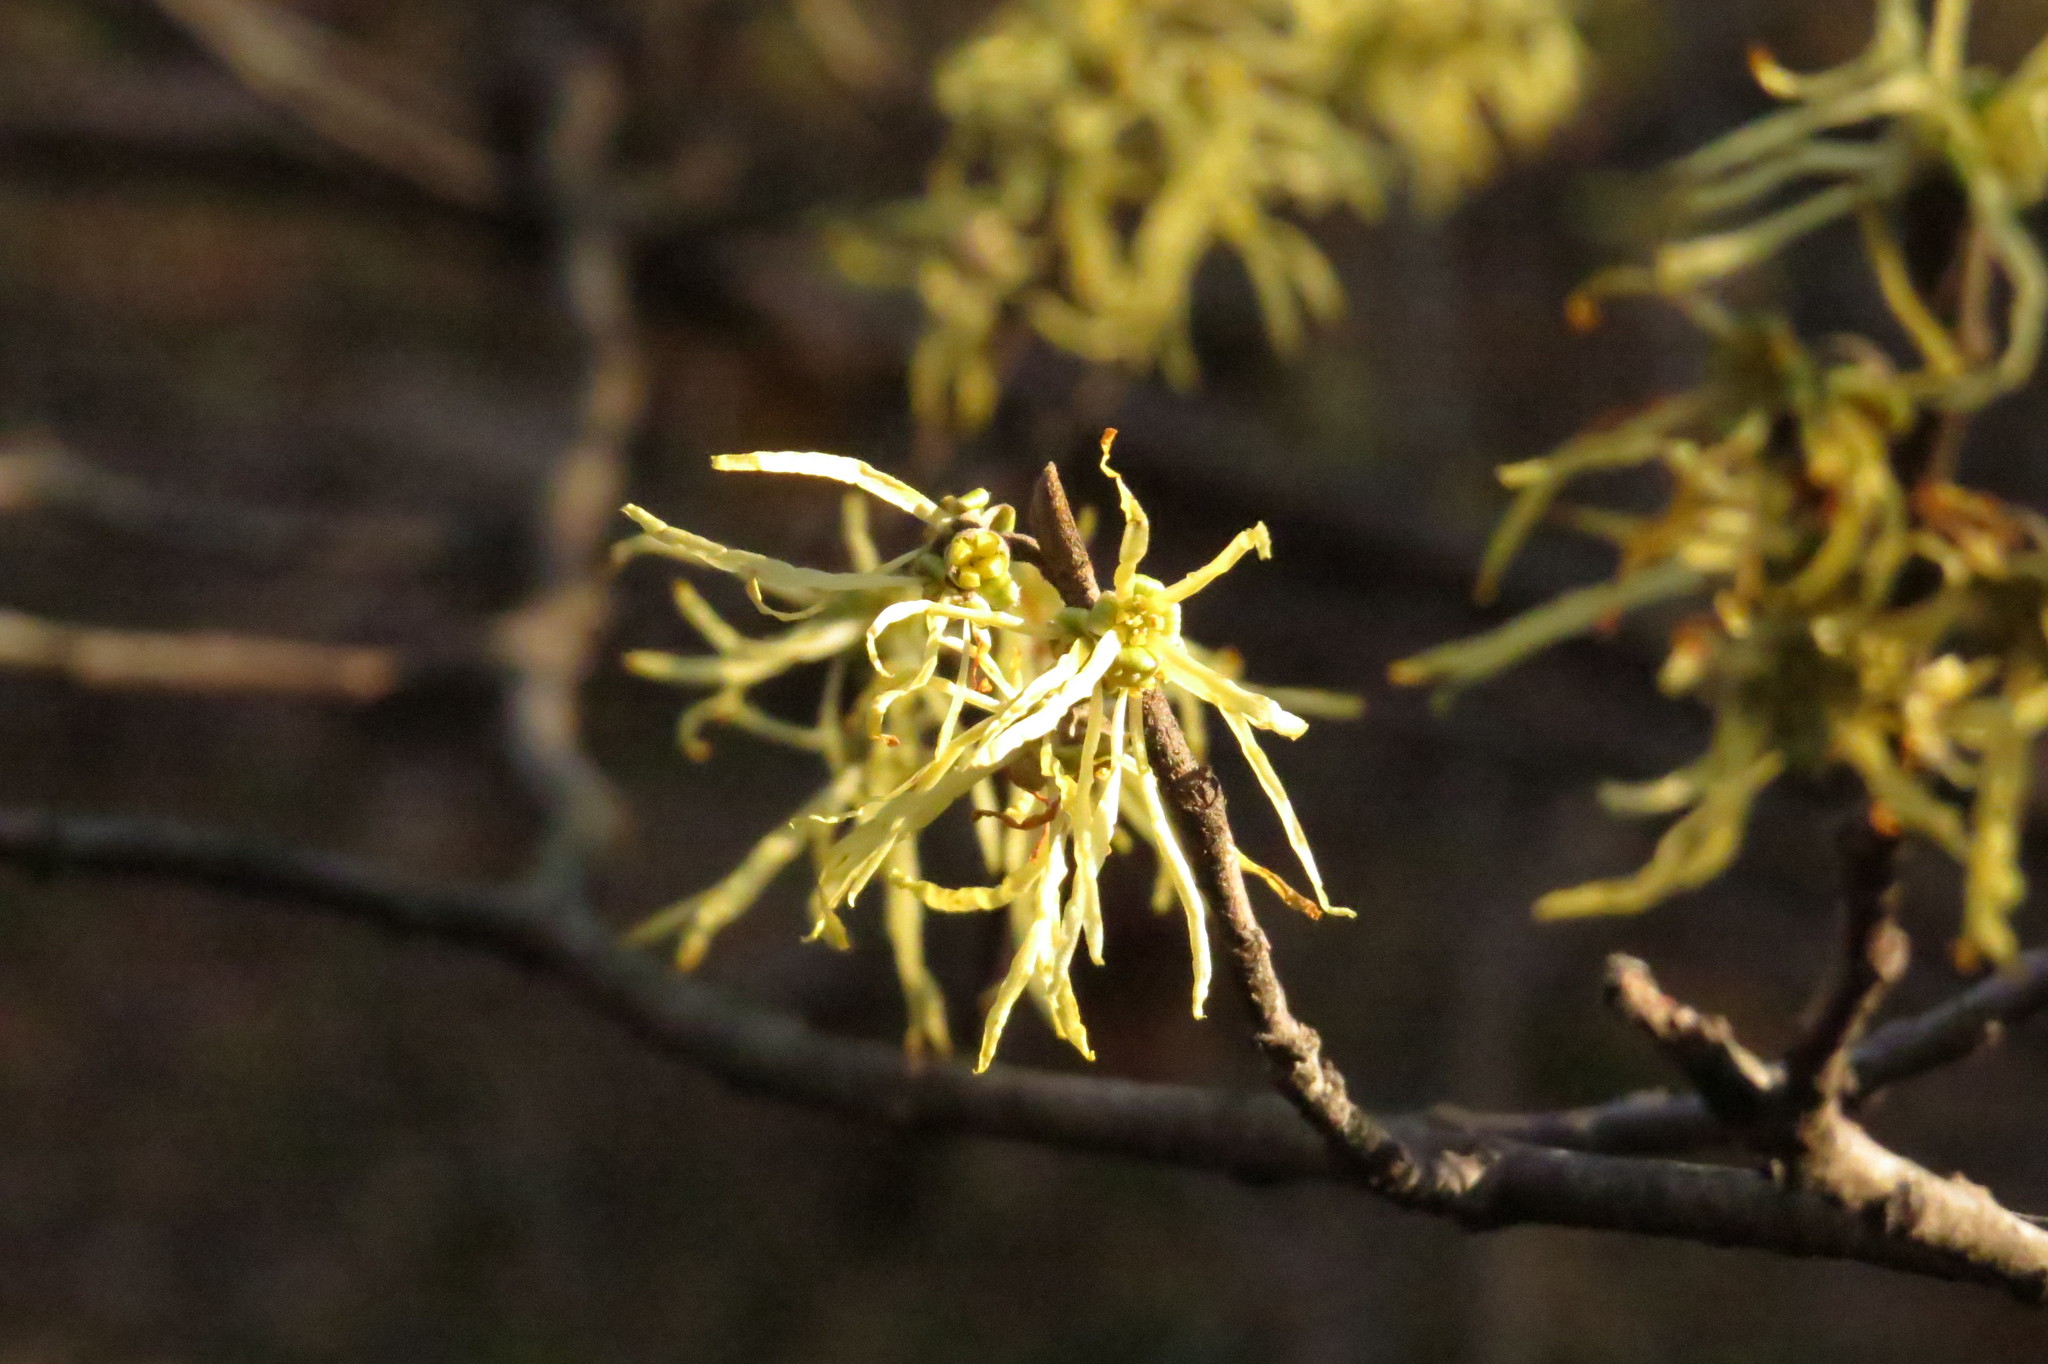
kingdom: Plantae
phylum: Tracheophyta
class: Magnoliopsida
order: Saxifragales
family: Hamamelidaceae
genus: Hamamelis
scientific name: Hamamelis virginiana
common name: Witch-hazel
